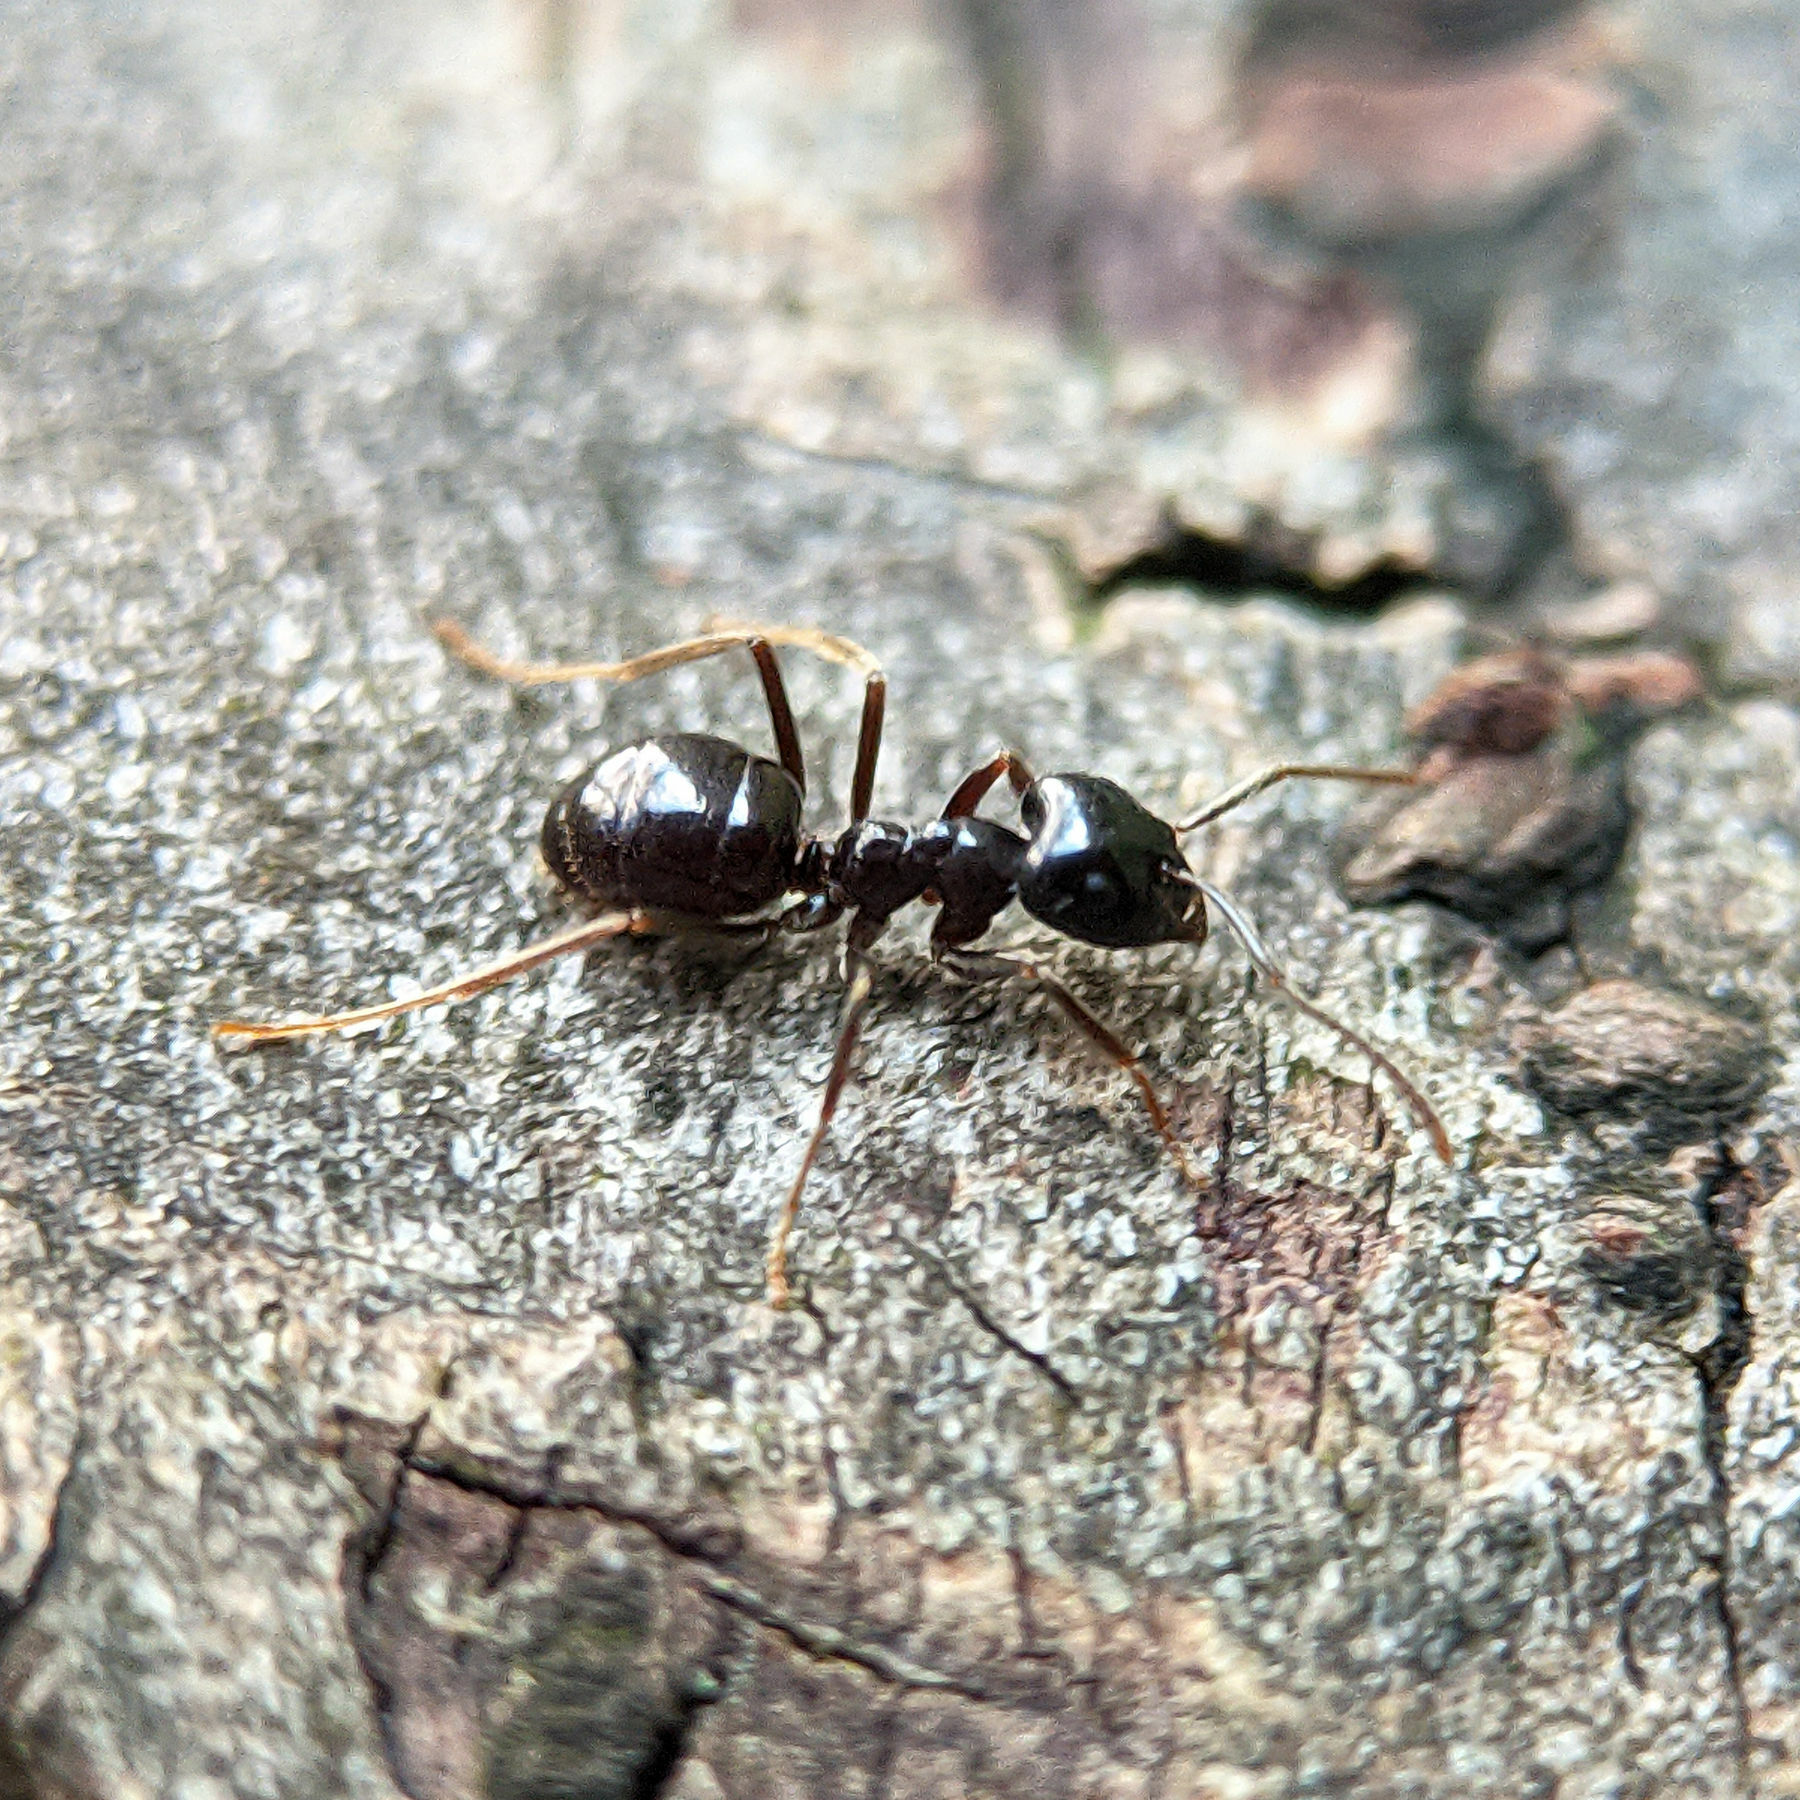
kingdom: Animalia
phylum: Arthropoda
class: Insecta
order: Hymenoptera
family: Formicidae
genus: Lasius
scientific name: Lasius fuliginosus
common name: Jet ant
